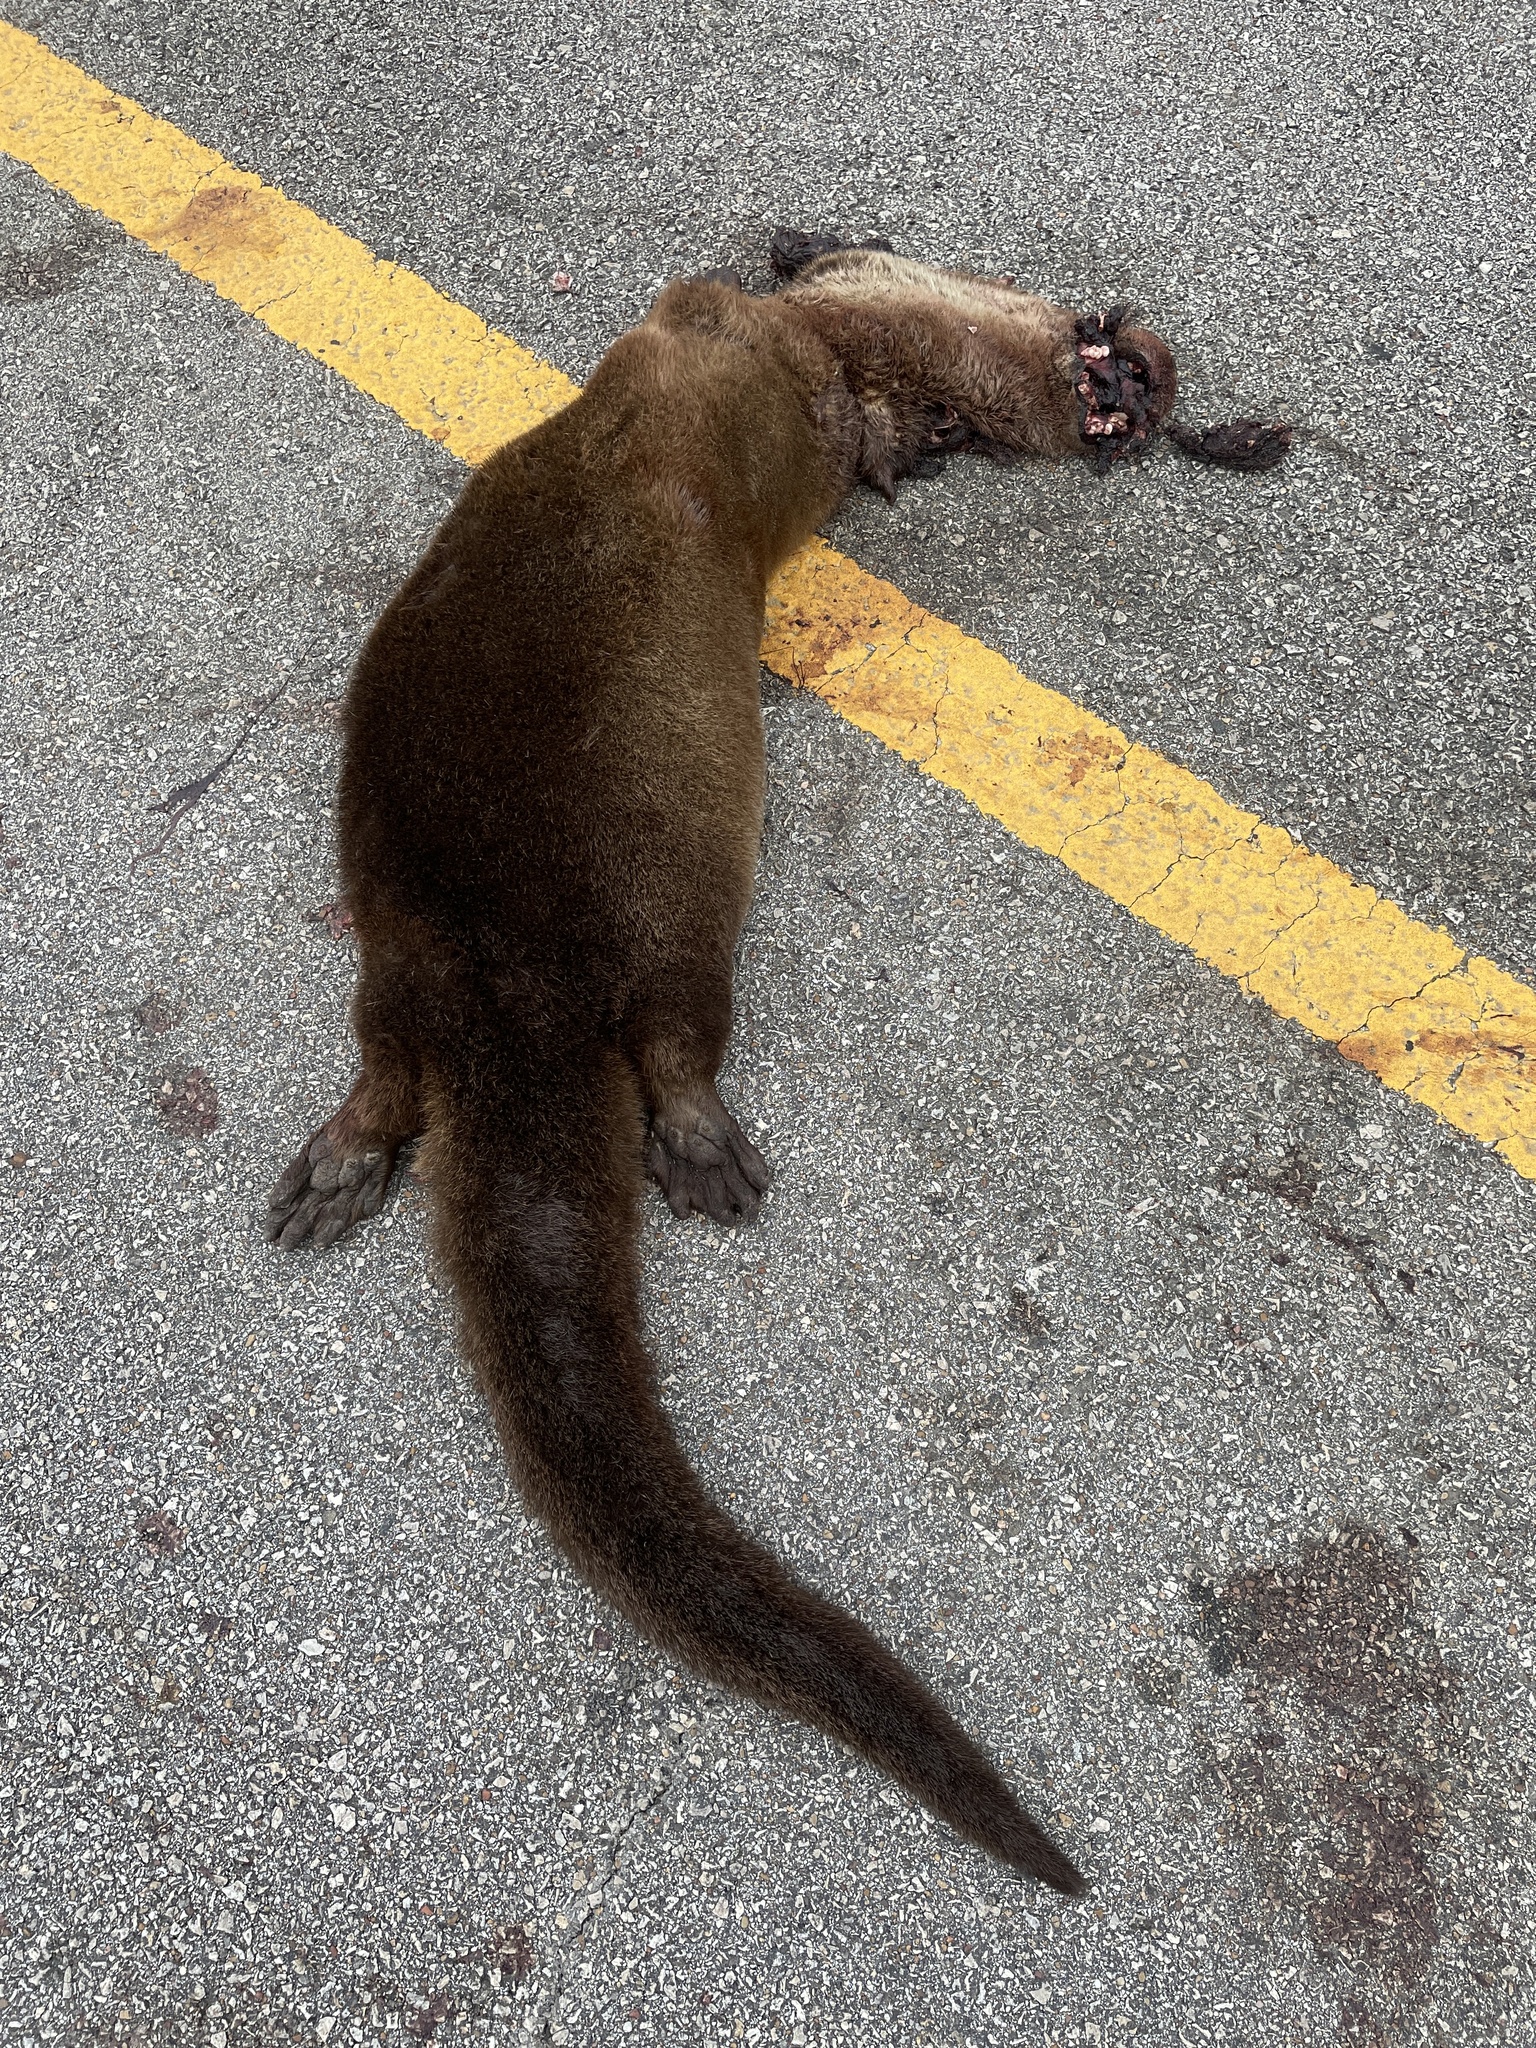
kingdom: Animalia
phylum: Chordata
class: Mammalia
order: Carnivora
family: Mustelidae
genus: Lontra
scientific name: Lontra canadensis
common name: North american river otter
